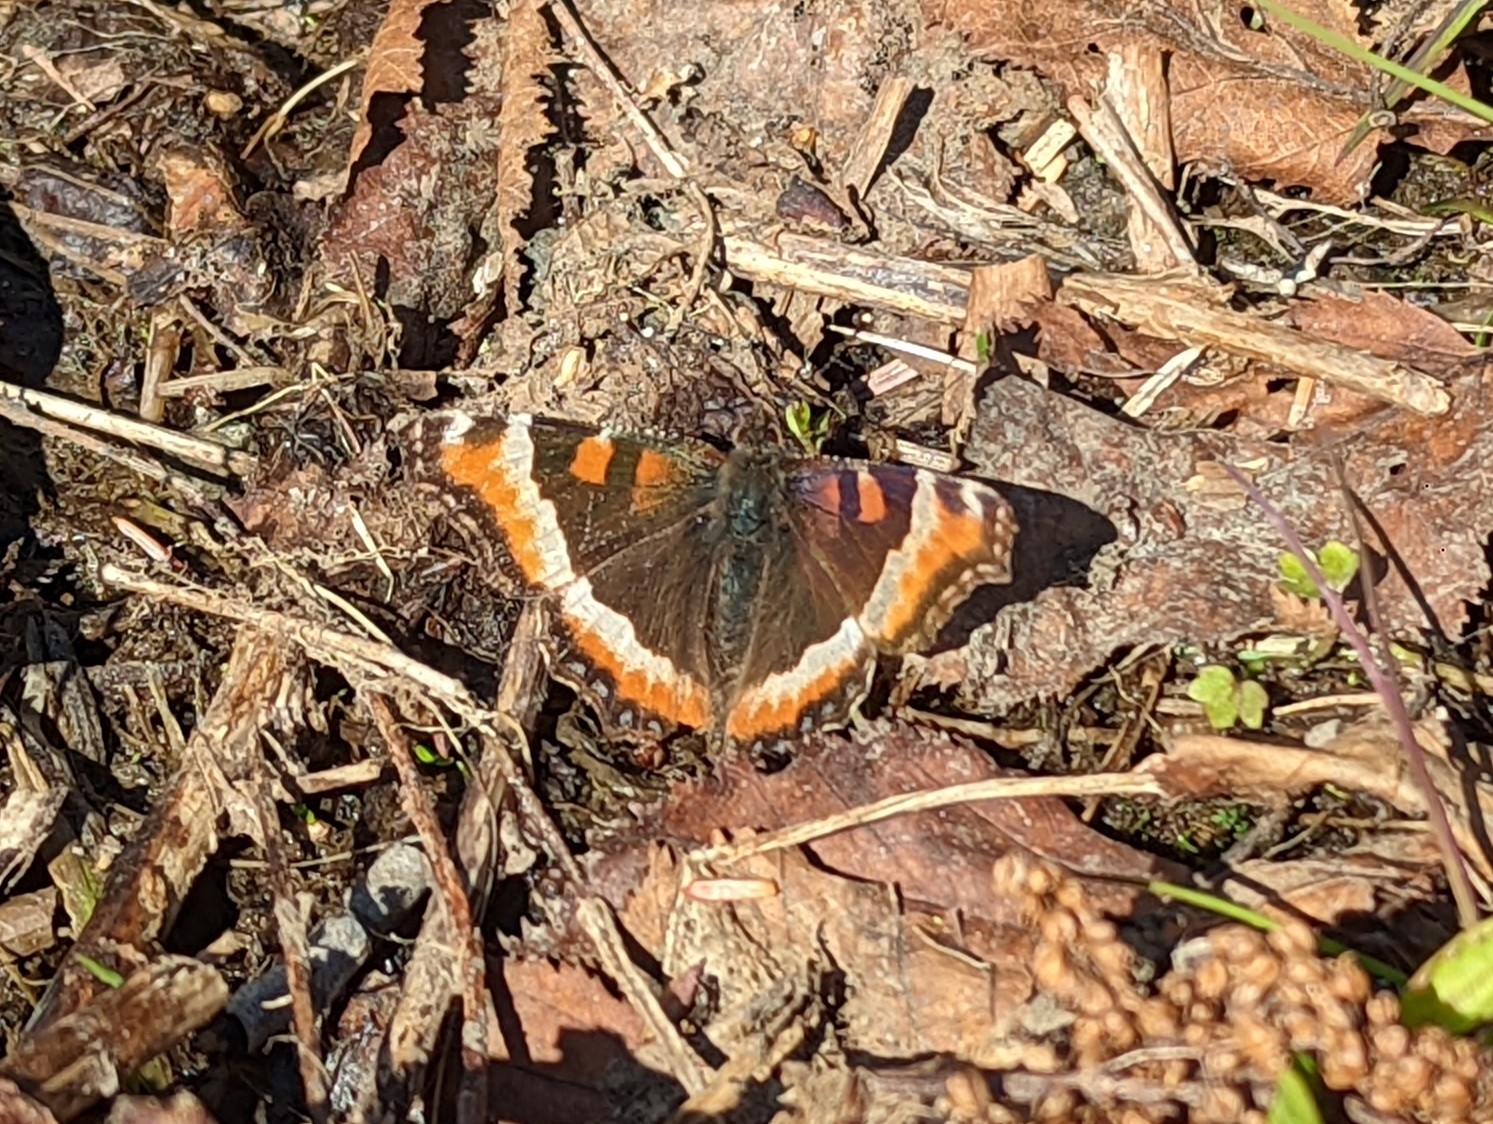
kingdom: Animalia
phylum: Arthropoda
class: Insecta
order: Lepidoptera
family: Nymphalidae
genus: Aglais
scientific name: Aglais milberti
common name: Milbert's tortoiseshell
